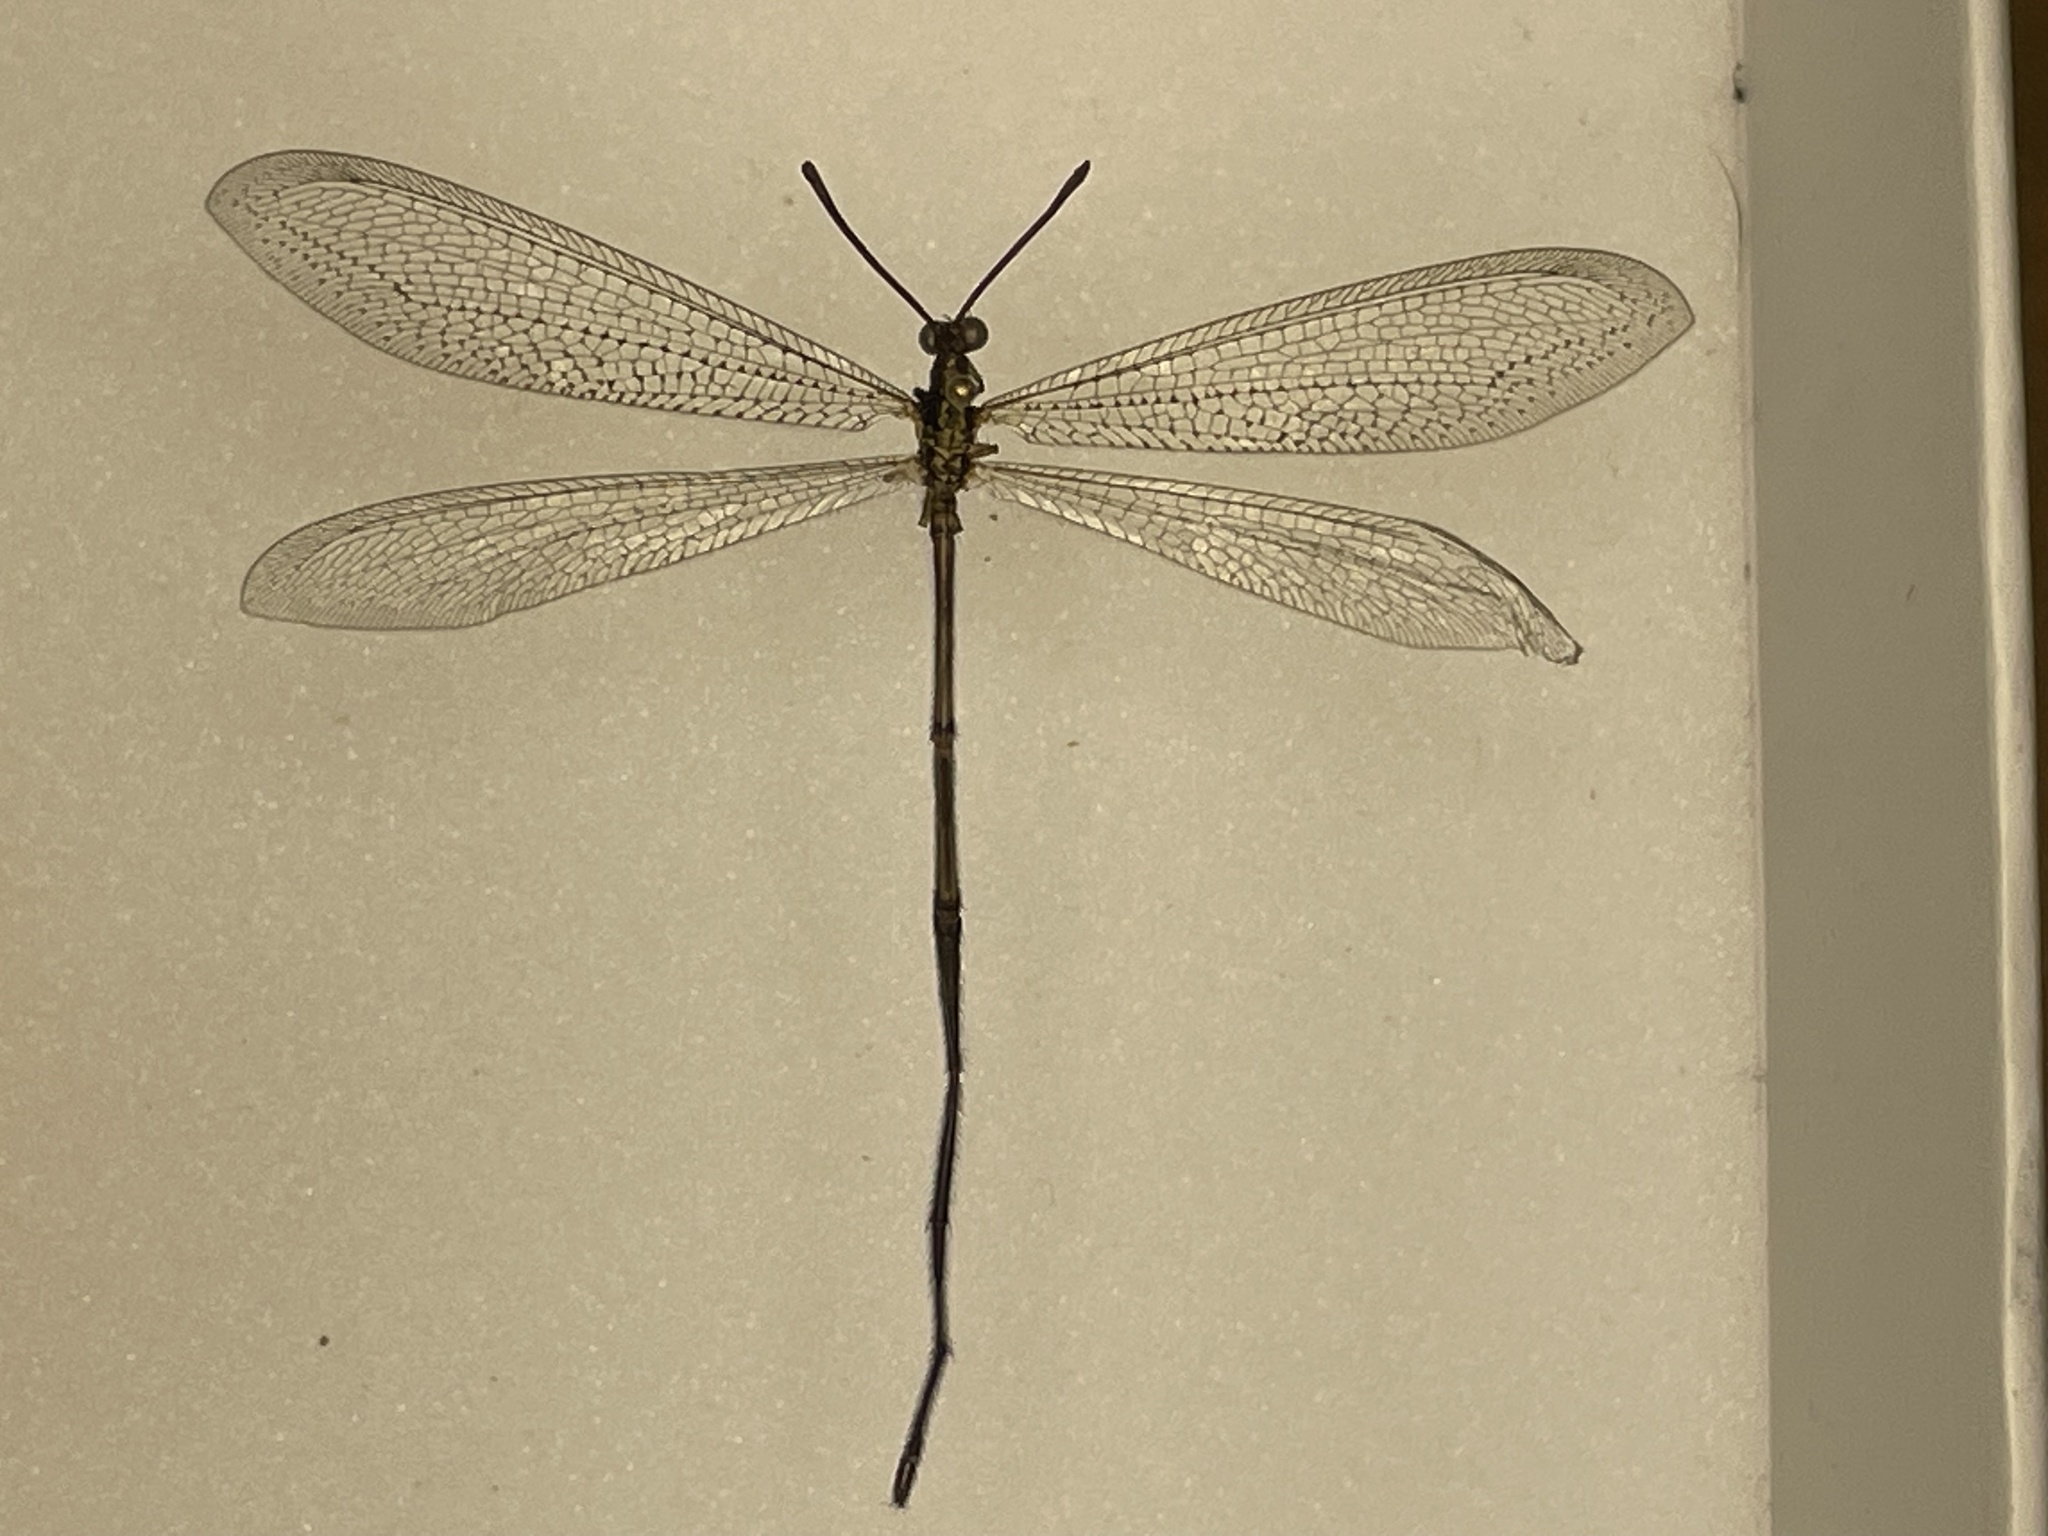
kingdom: Animalia
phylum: Arthropoda
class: Insecta
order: Neuroptera
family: Myrmeleontidae
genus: Brachynemurus
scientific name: Brachynemurus longicaudus
